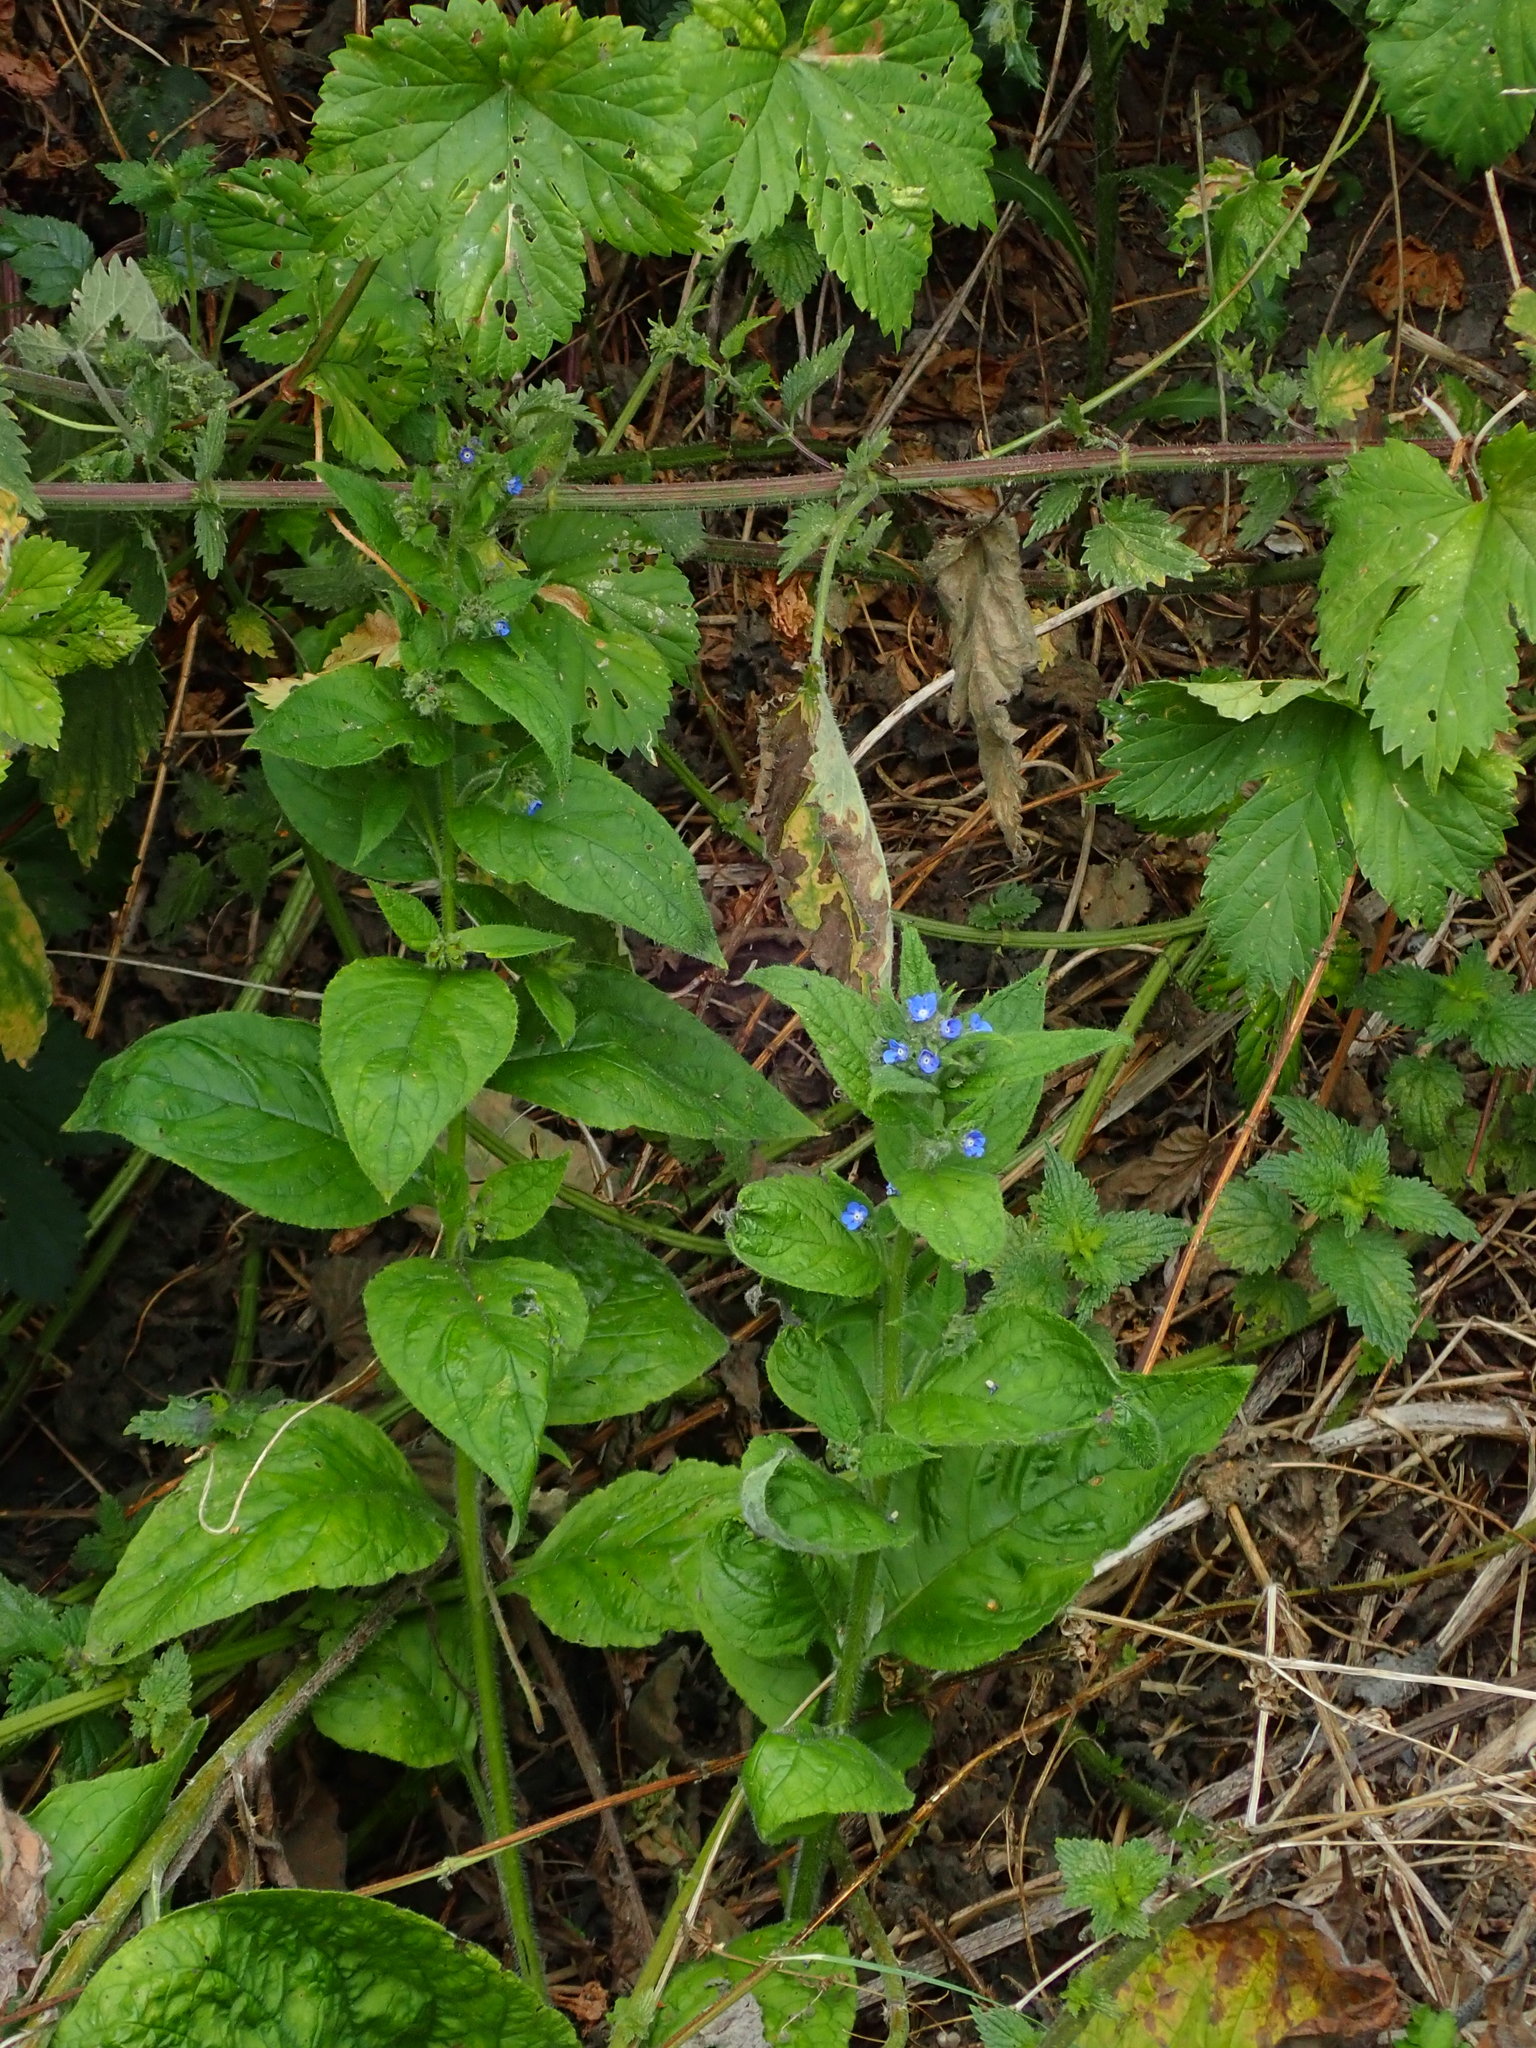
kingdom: Plantae
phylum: Tracheophyta
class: Magnoliopsida
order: Boraginales
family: Boraginaceae
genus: Pentaglottis
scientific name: Pentaglottis sempervirens
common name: Green alkanet
